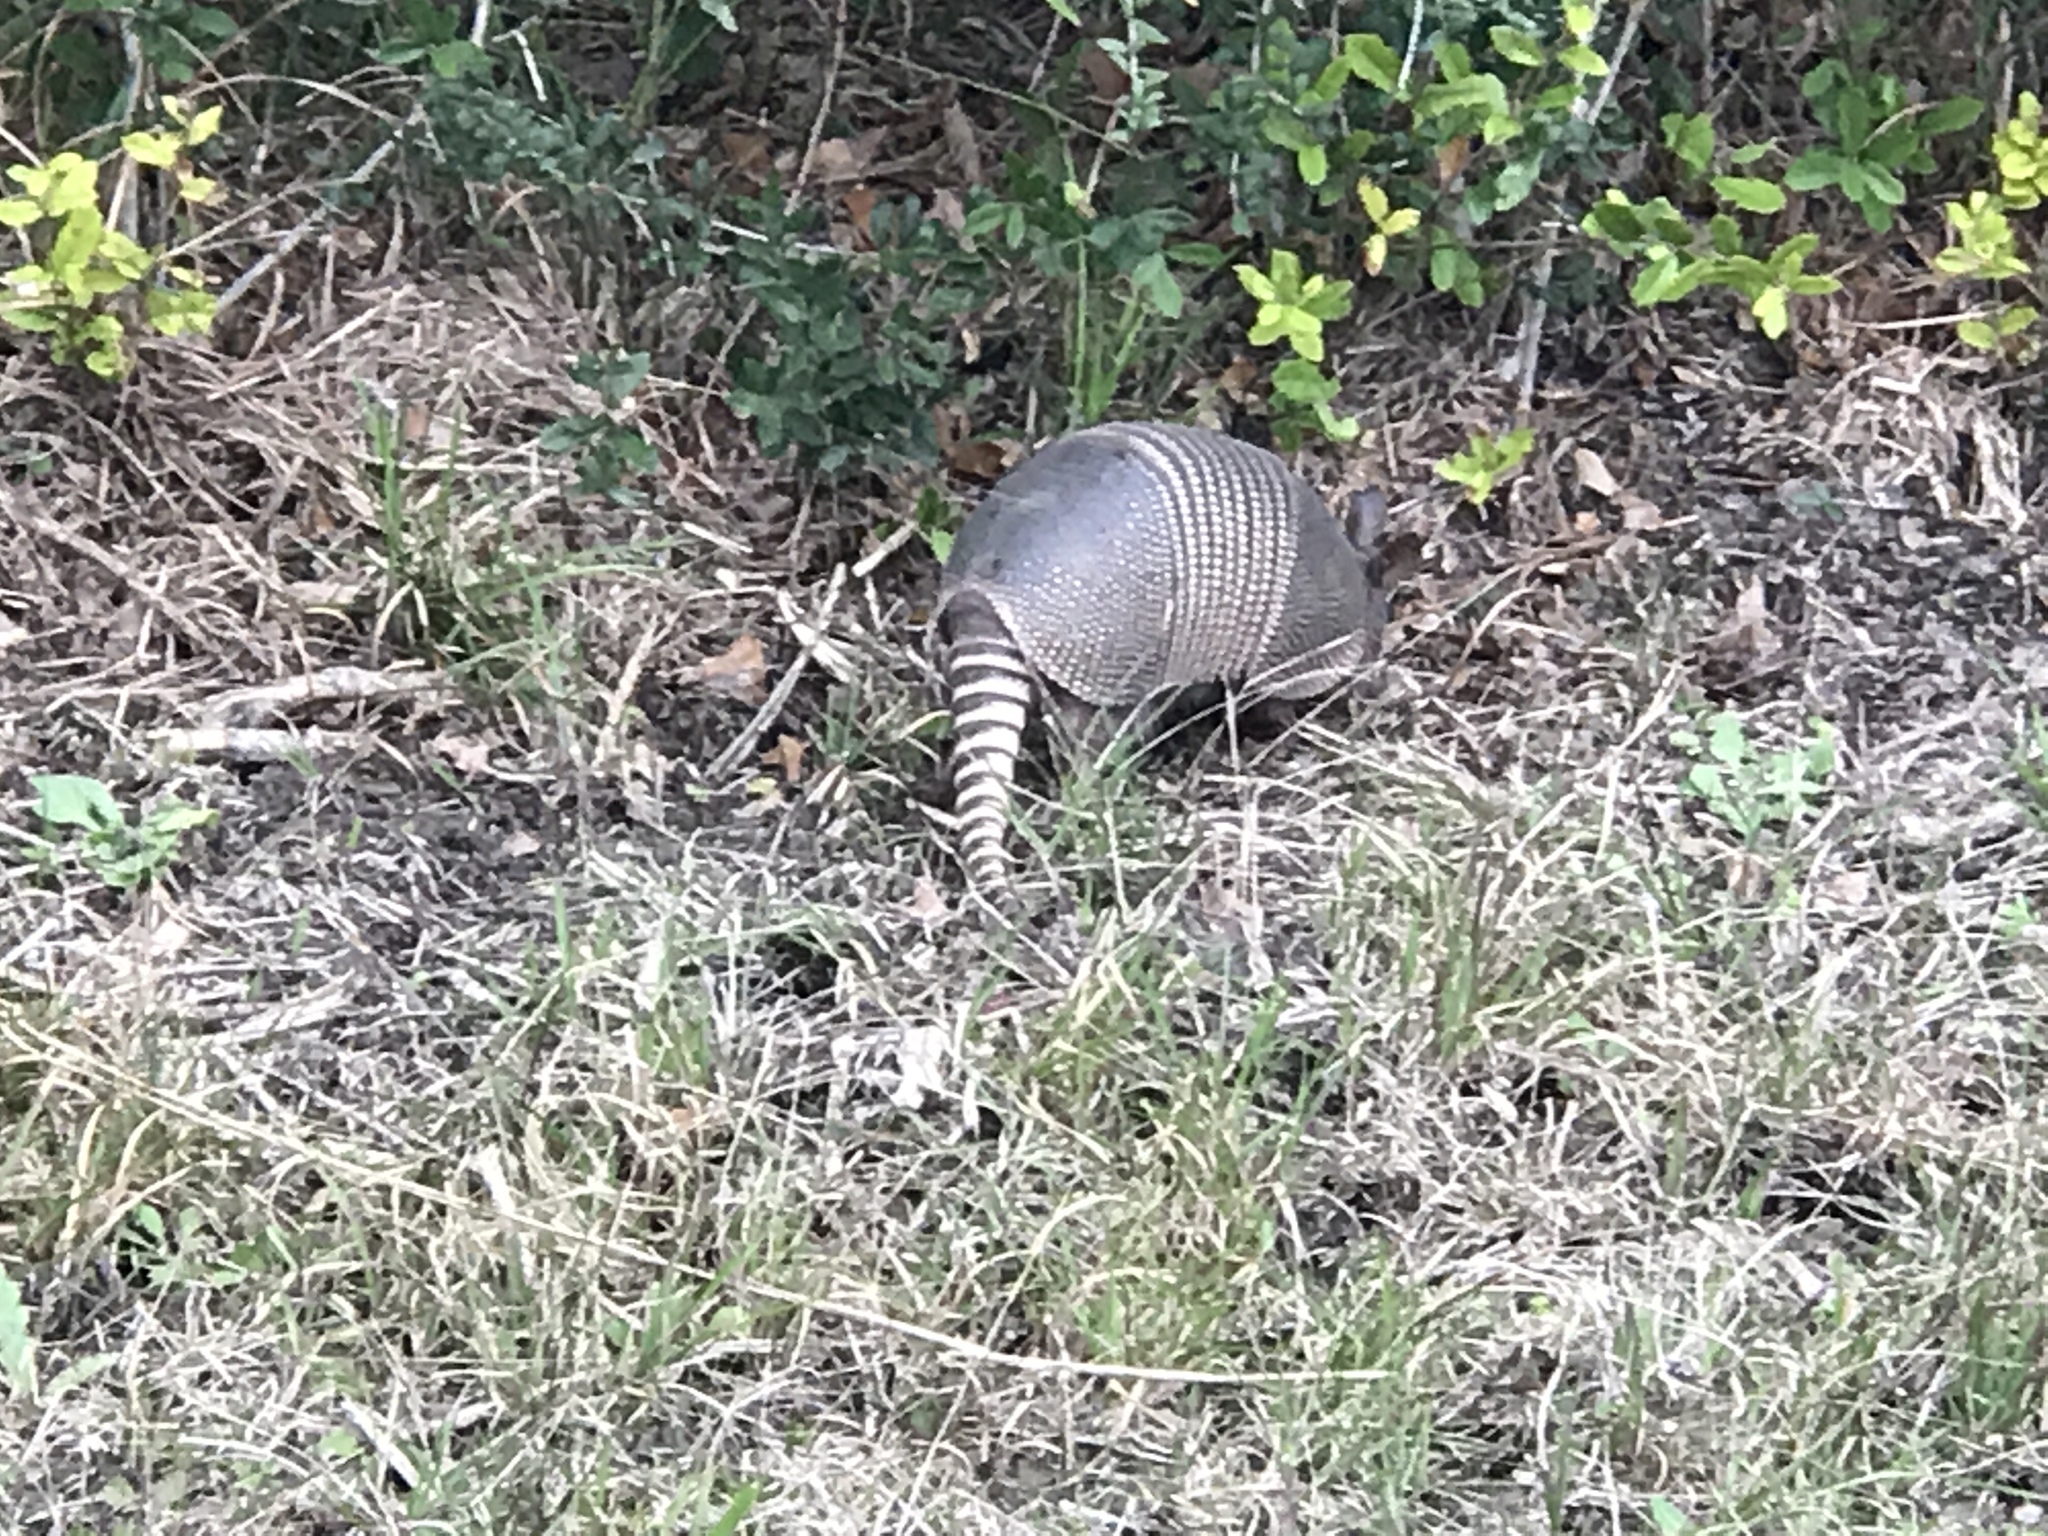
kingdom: Animalia
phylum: Chordata
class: Mammalia
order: Cingulata
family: Dasypodidae
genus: Dasypus
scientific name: Dasypus novemcinctus
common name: Nine-banded armadillo
